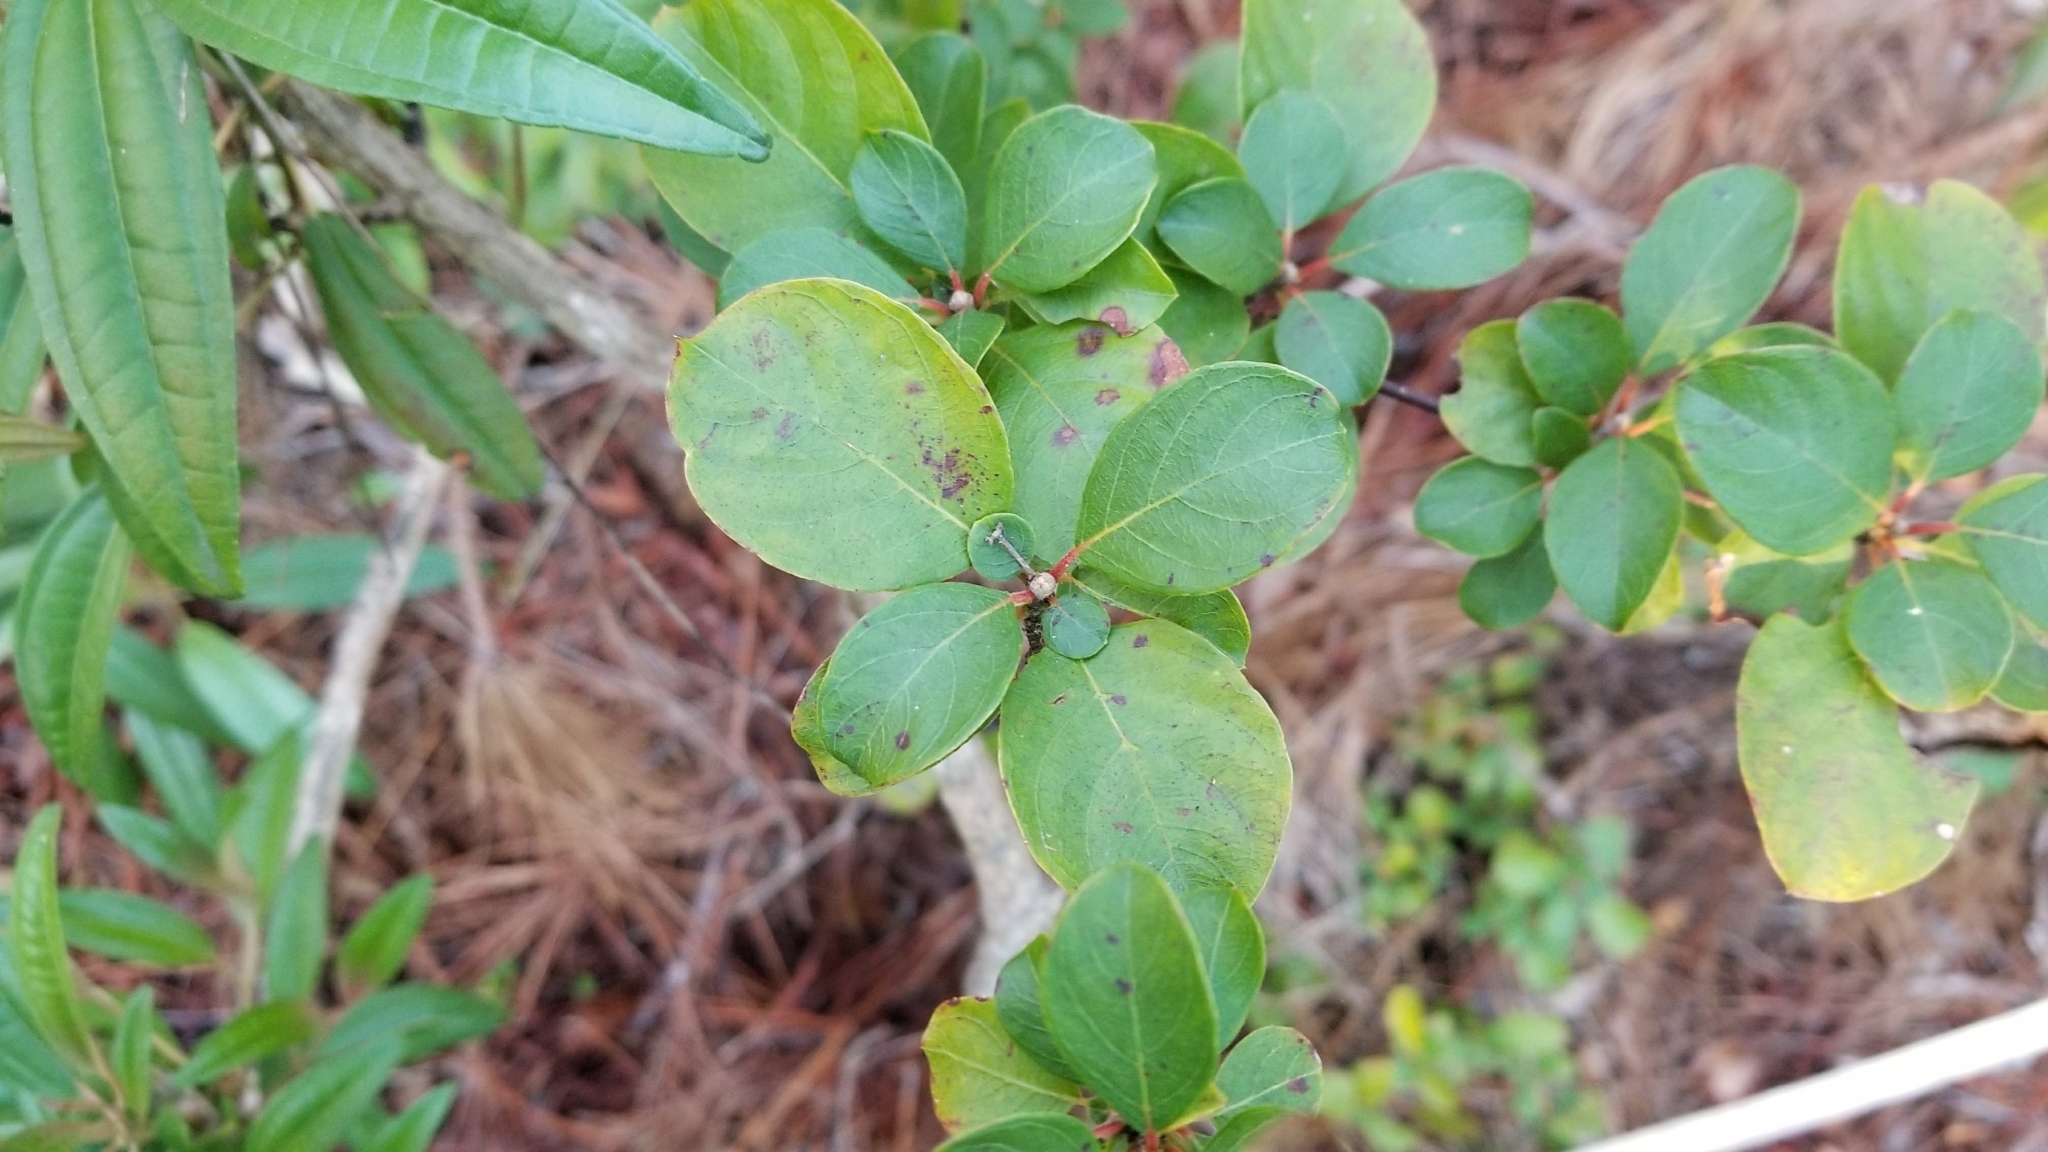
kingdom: Plantae
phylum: Tracheophyta
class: Magnoliopsida
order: Gentianales
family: Rubiaceae
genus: Guettarda
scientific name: Guettarda elliptica
